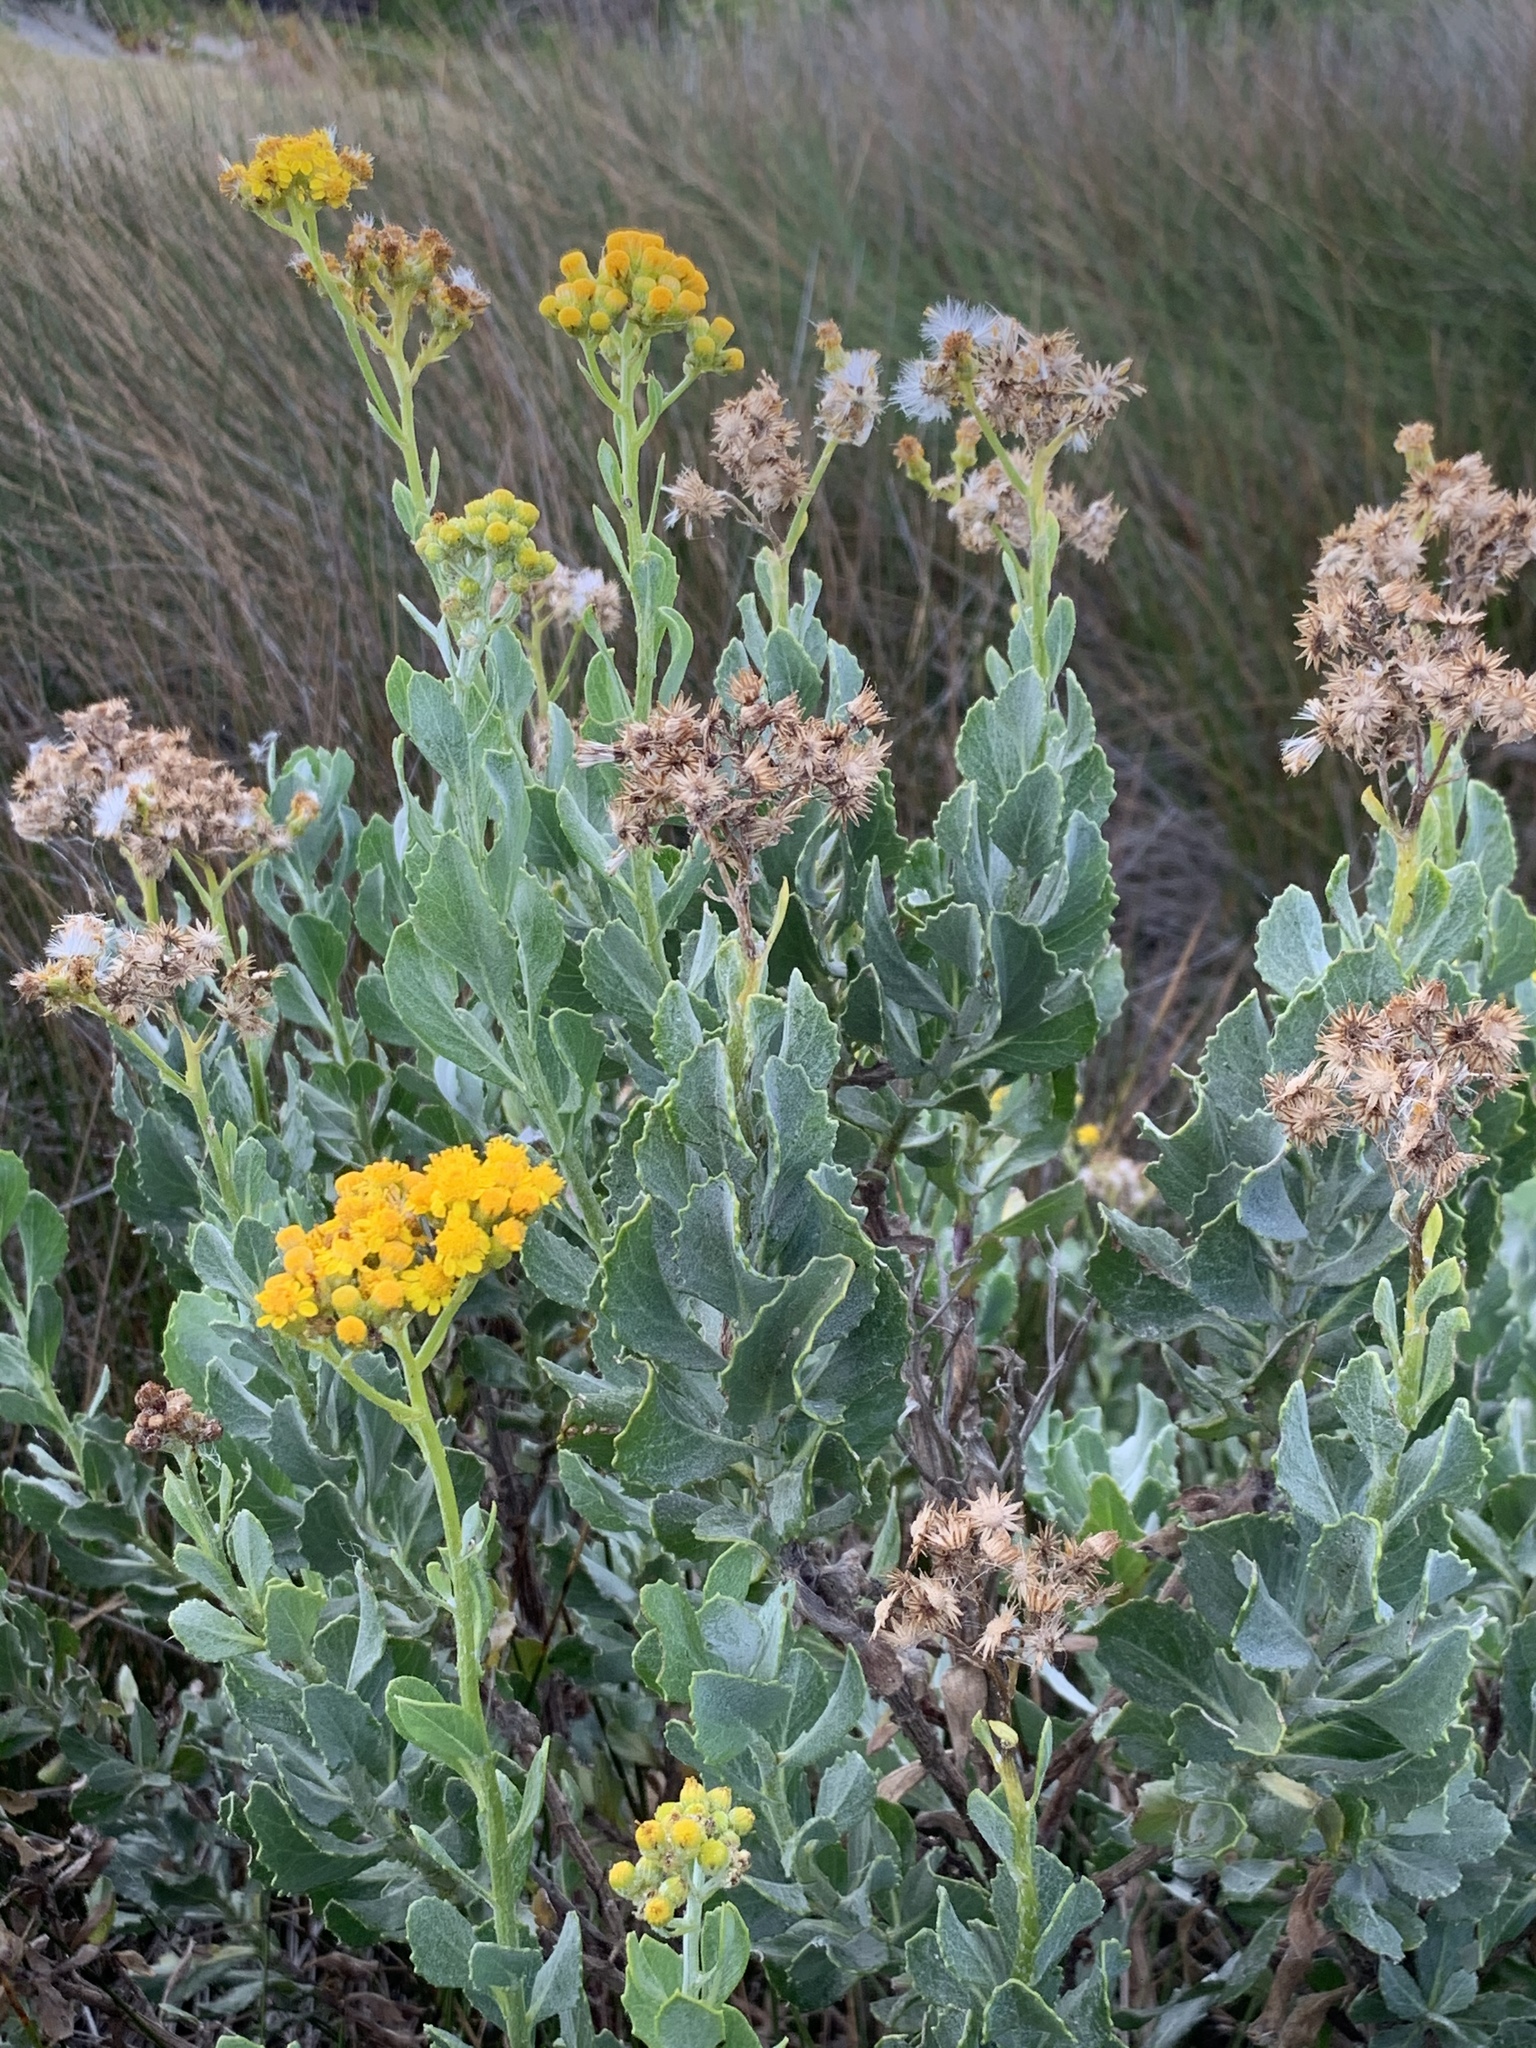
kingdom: Plantae
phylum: Tracheophyta
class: Magnoliopsida
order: Asterales
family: Asteraceae
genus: Senecio
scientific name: Senecio halimifolius
